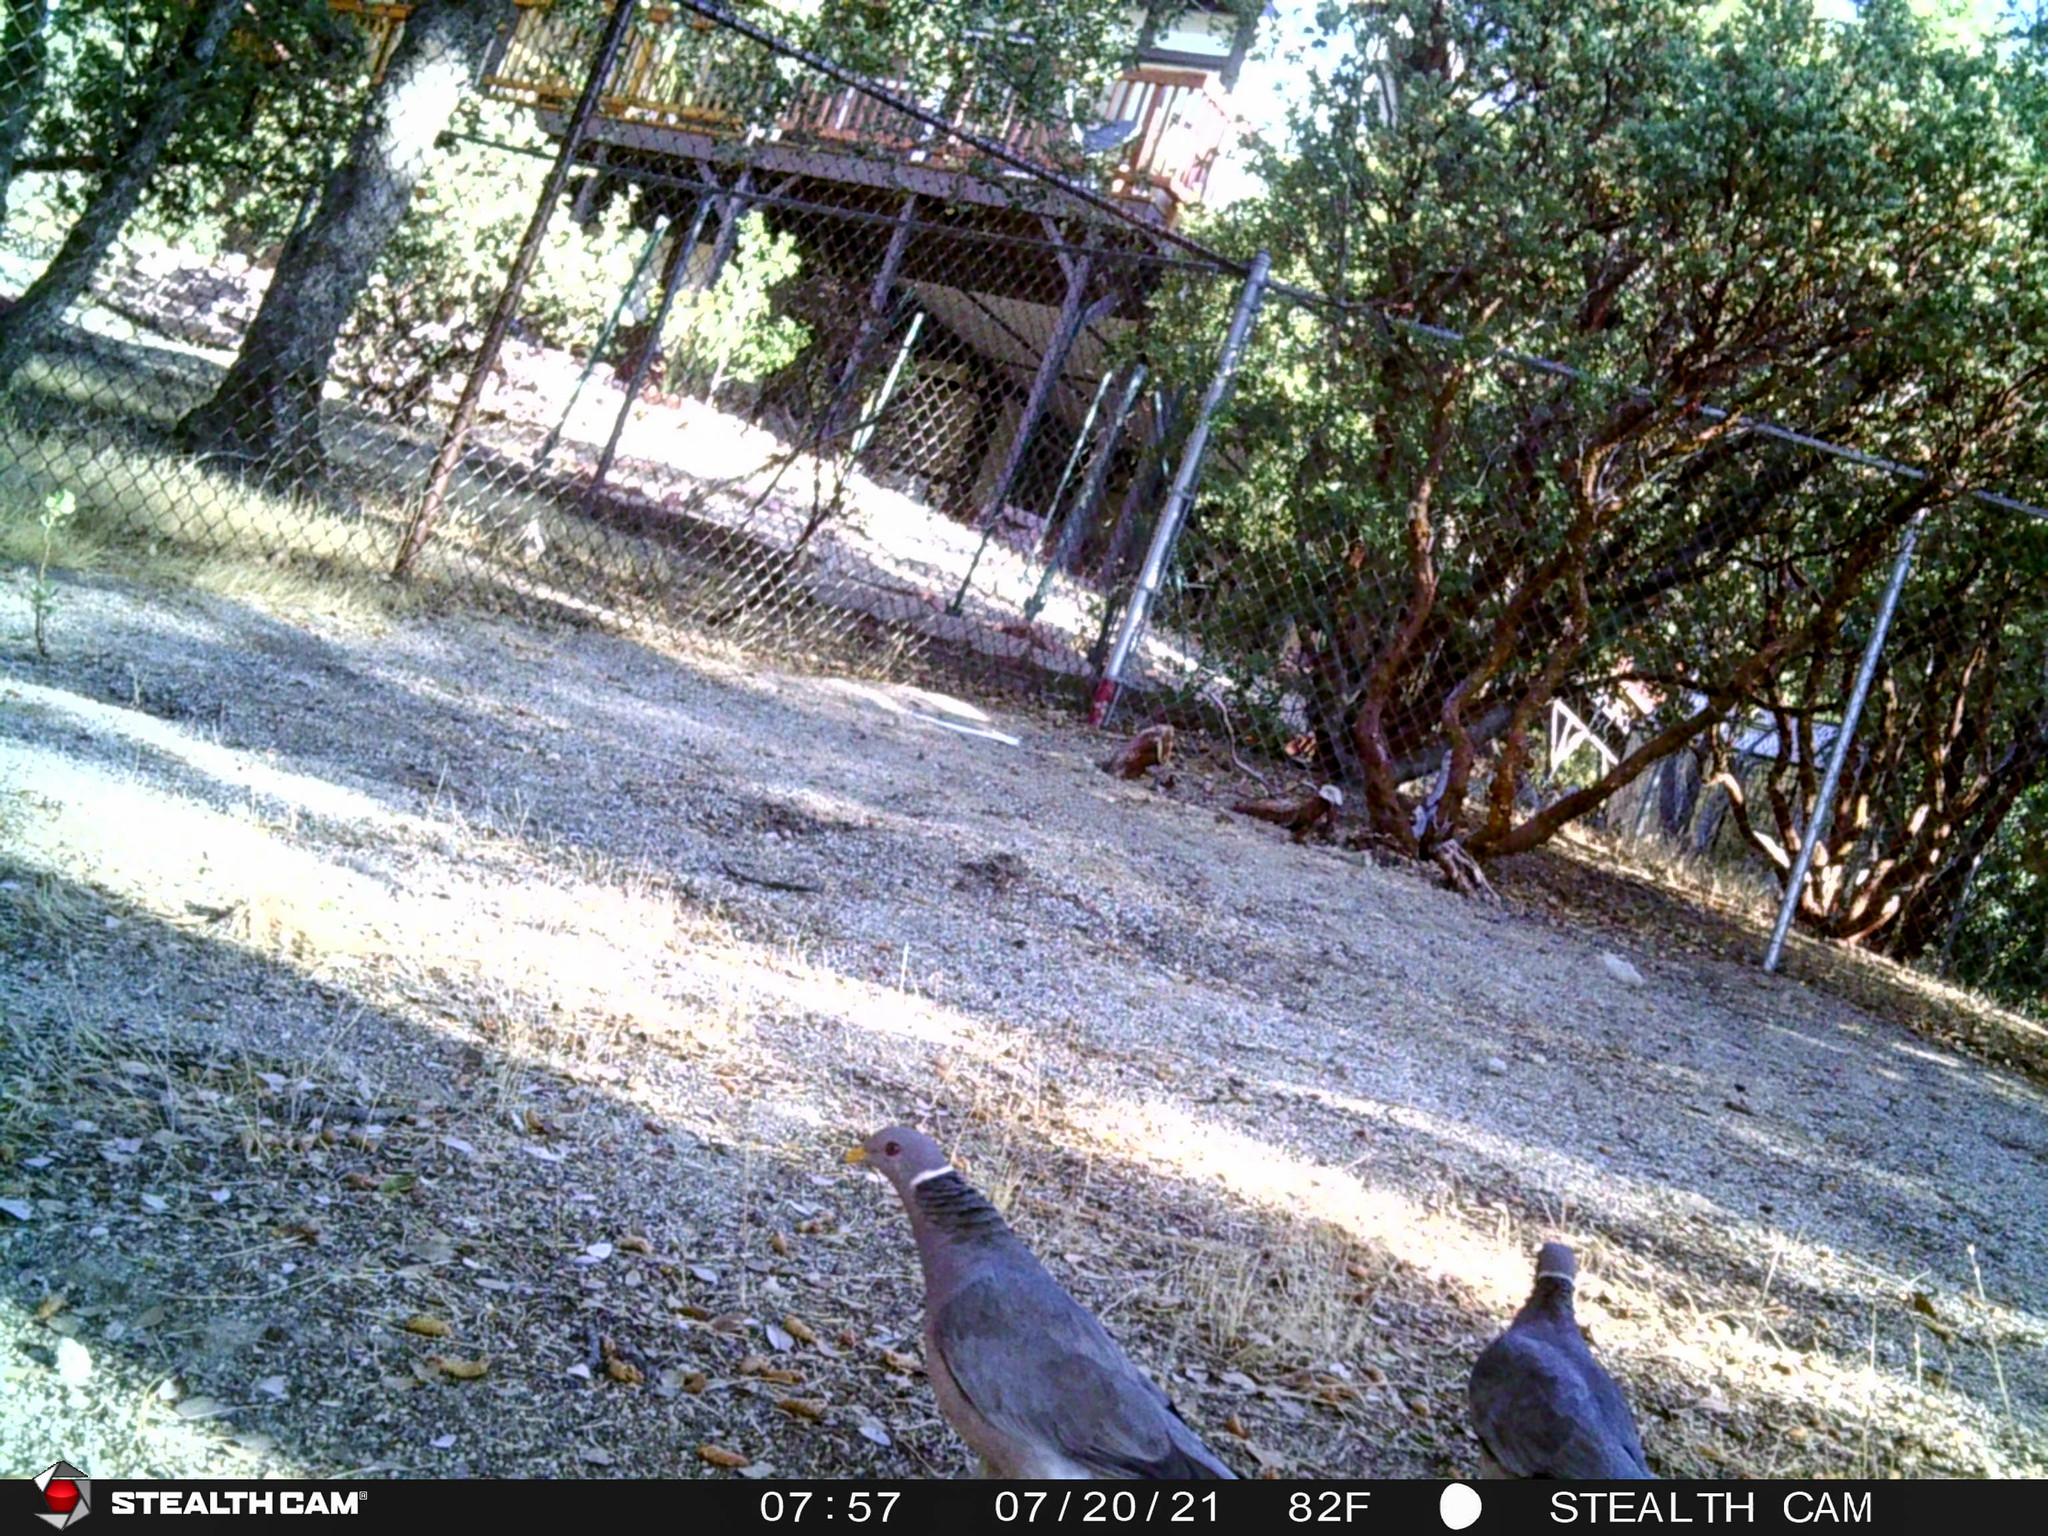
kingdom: Animalia
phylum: Chordata
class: Aves
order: Columbiformes
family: Columbidae
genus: Patagioenas
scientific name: Patagioenas fasciata
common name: Band-tailed pigeon
